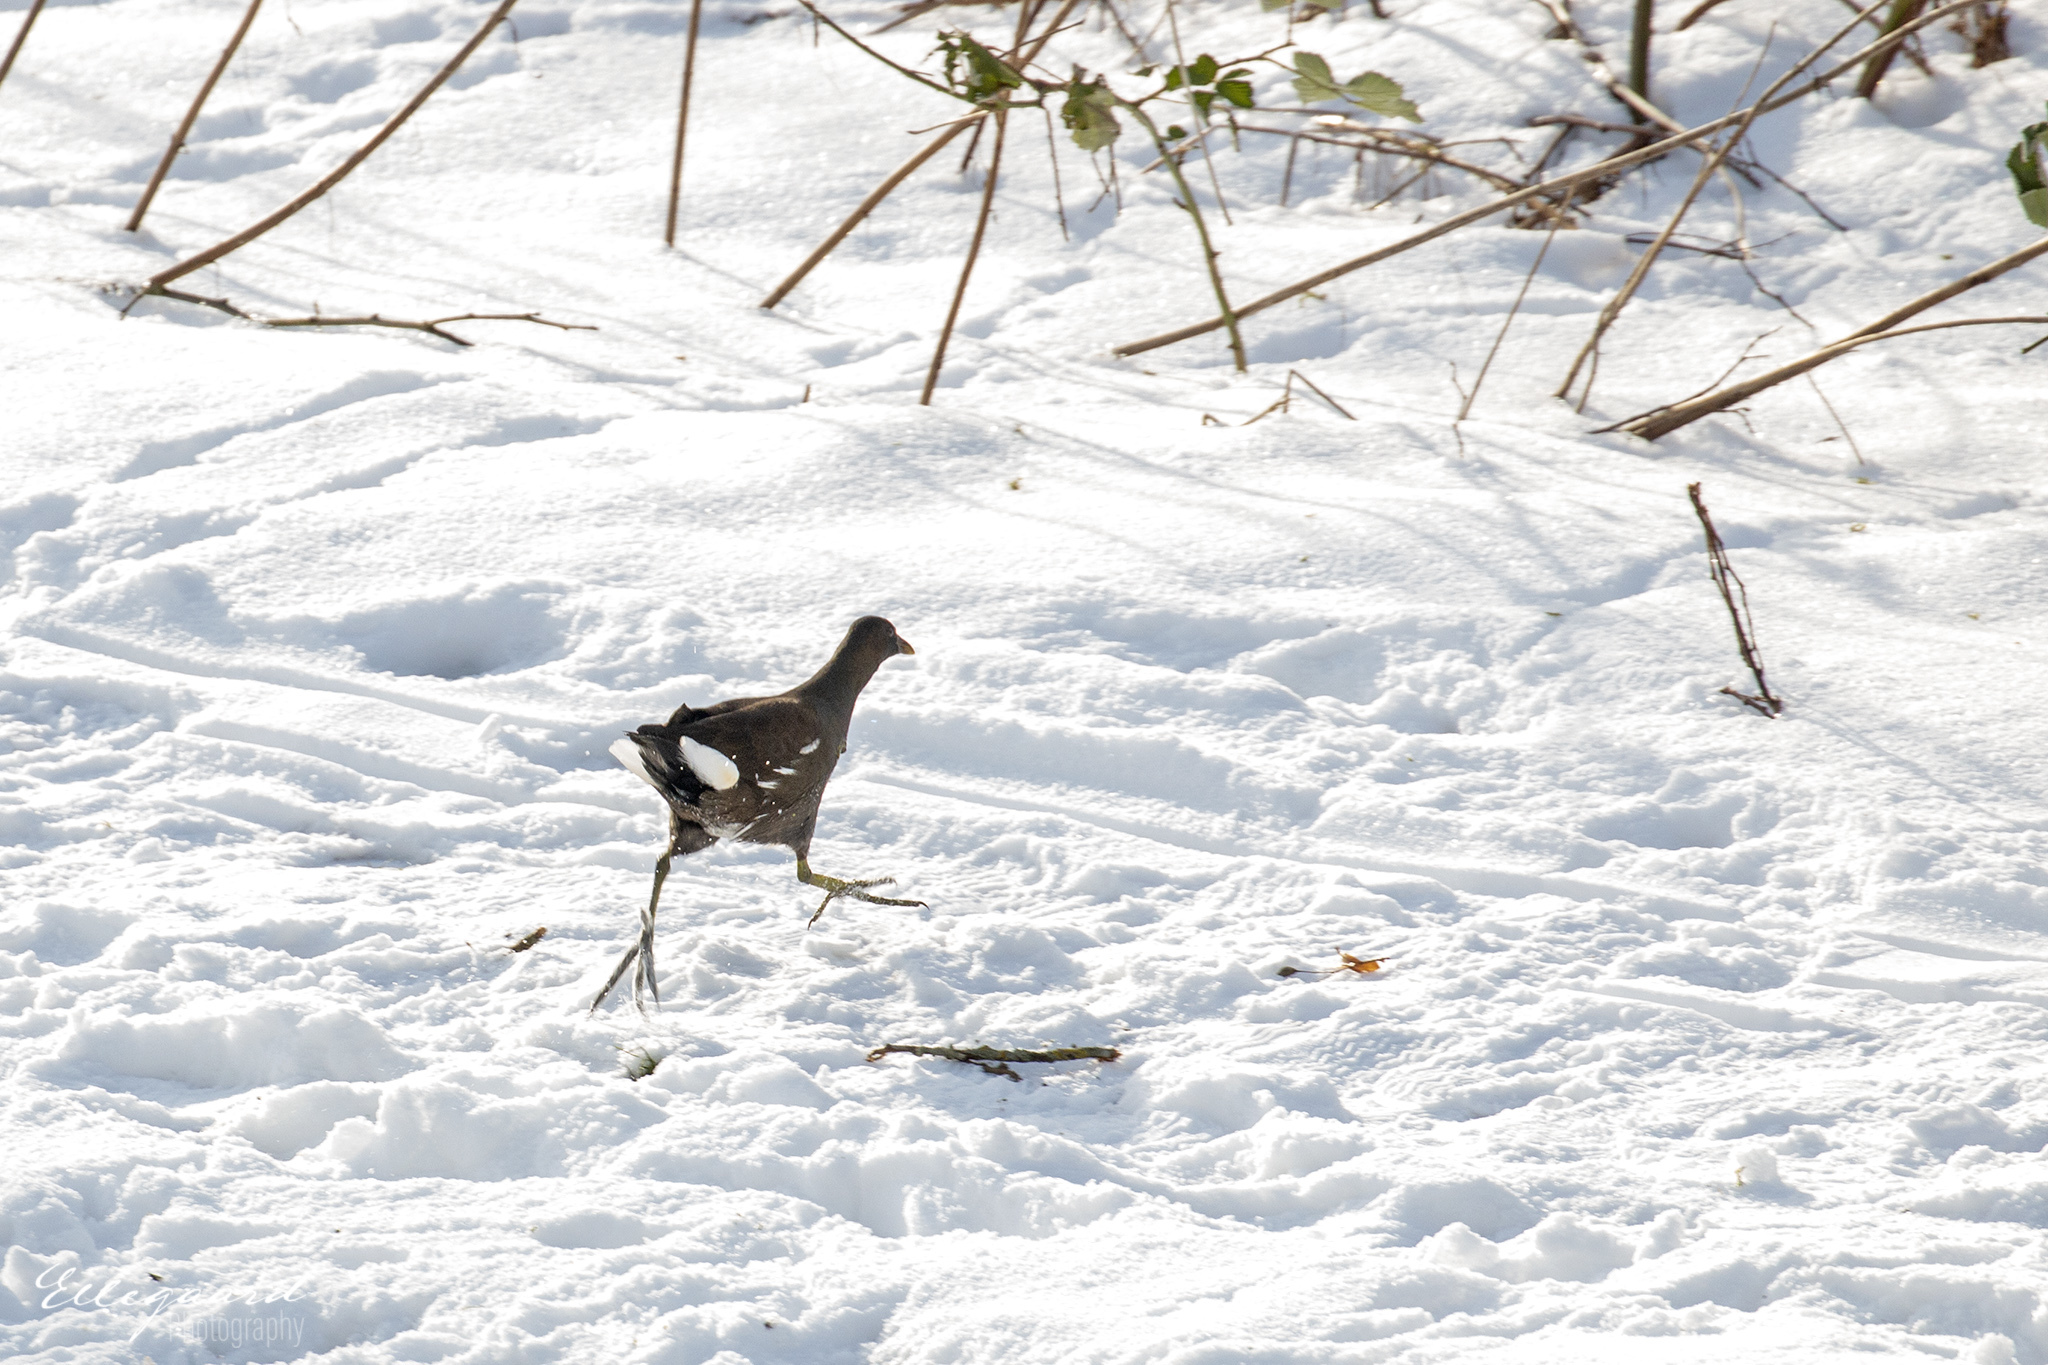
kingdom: Animalia
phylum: Chordata
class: Aves
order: Gruiformes
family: Rallidae
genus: Gallinula
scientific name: Gallinula chloropus
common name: Common moorhen
